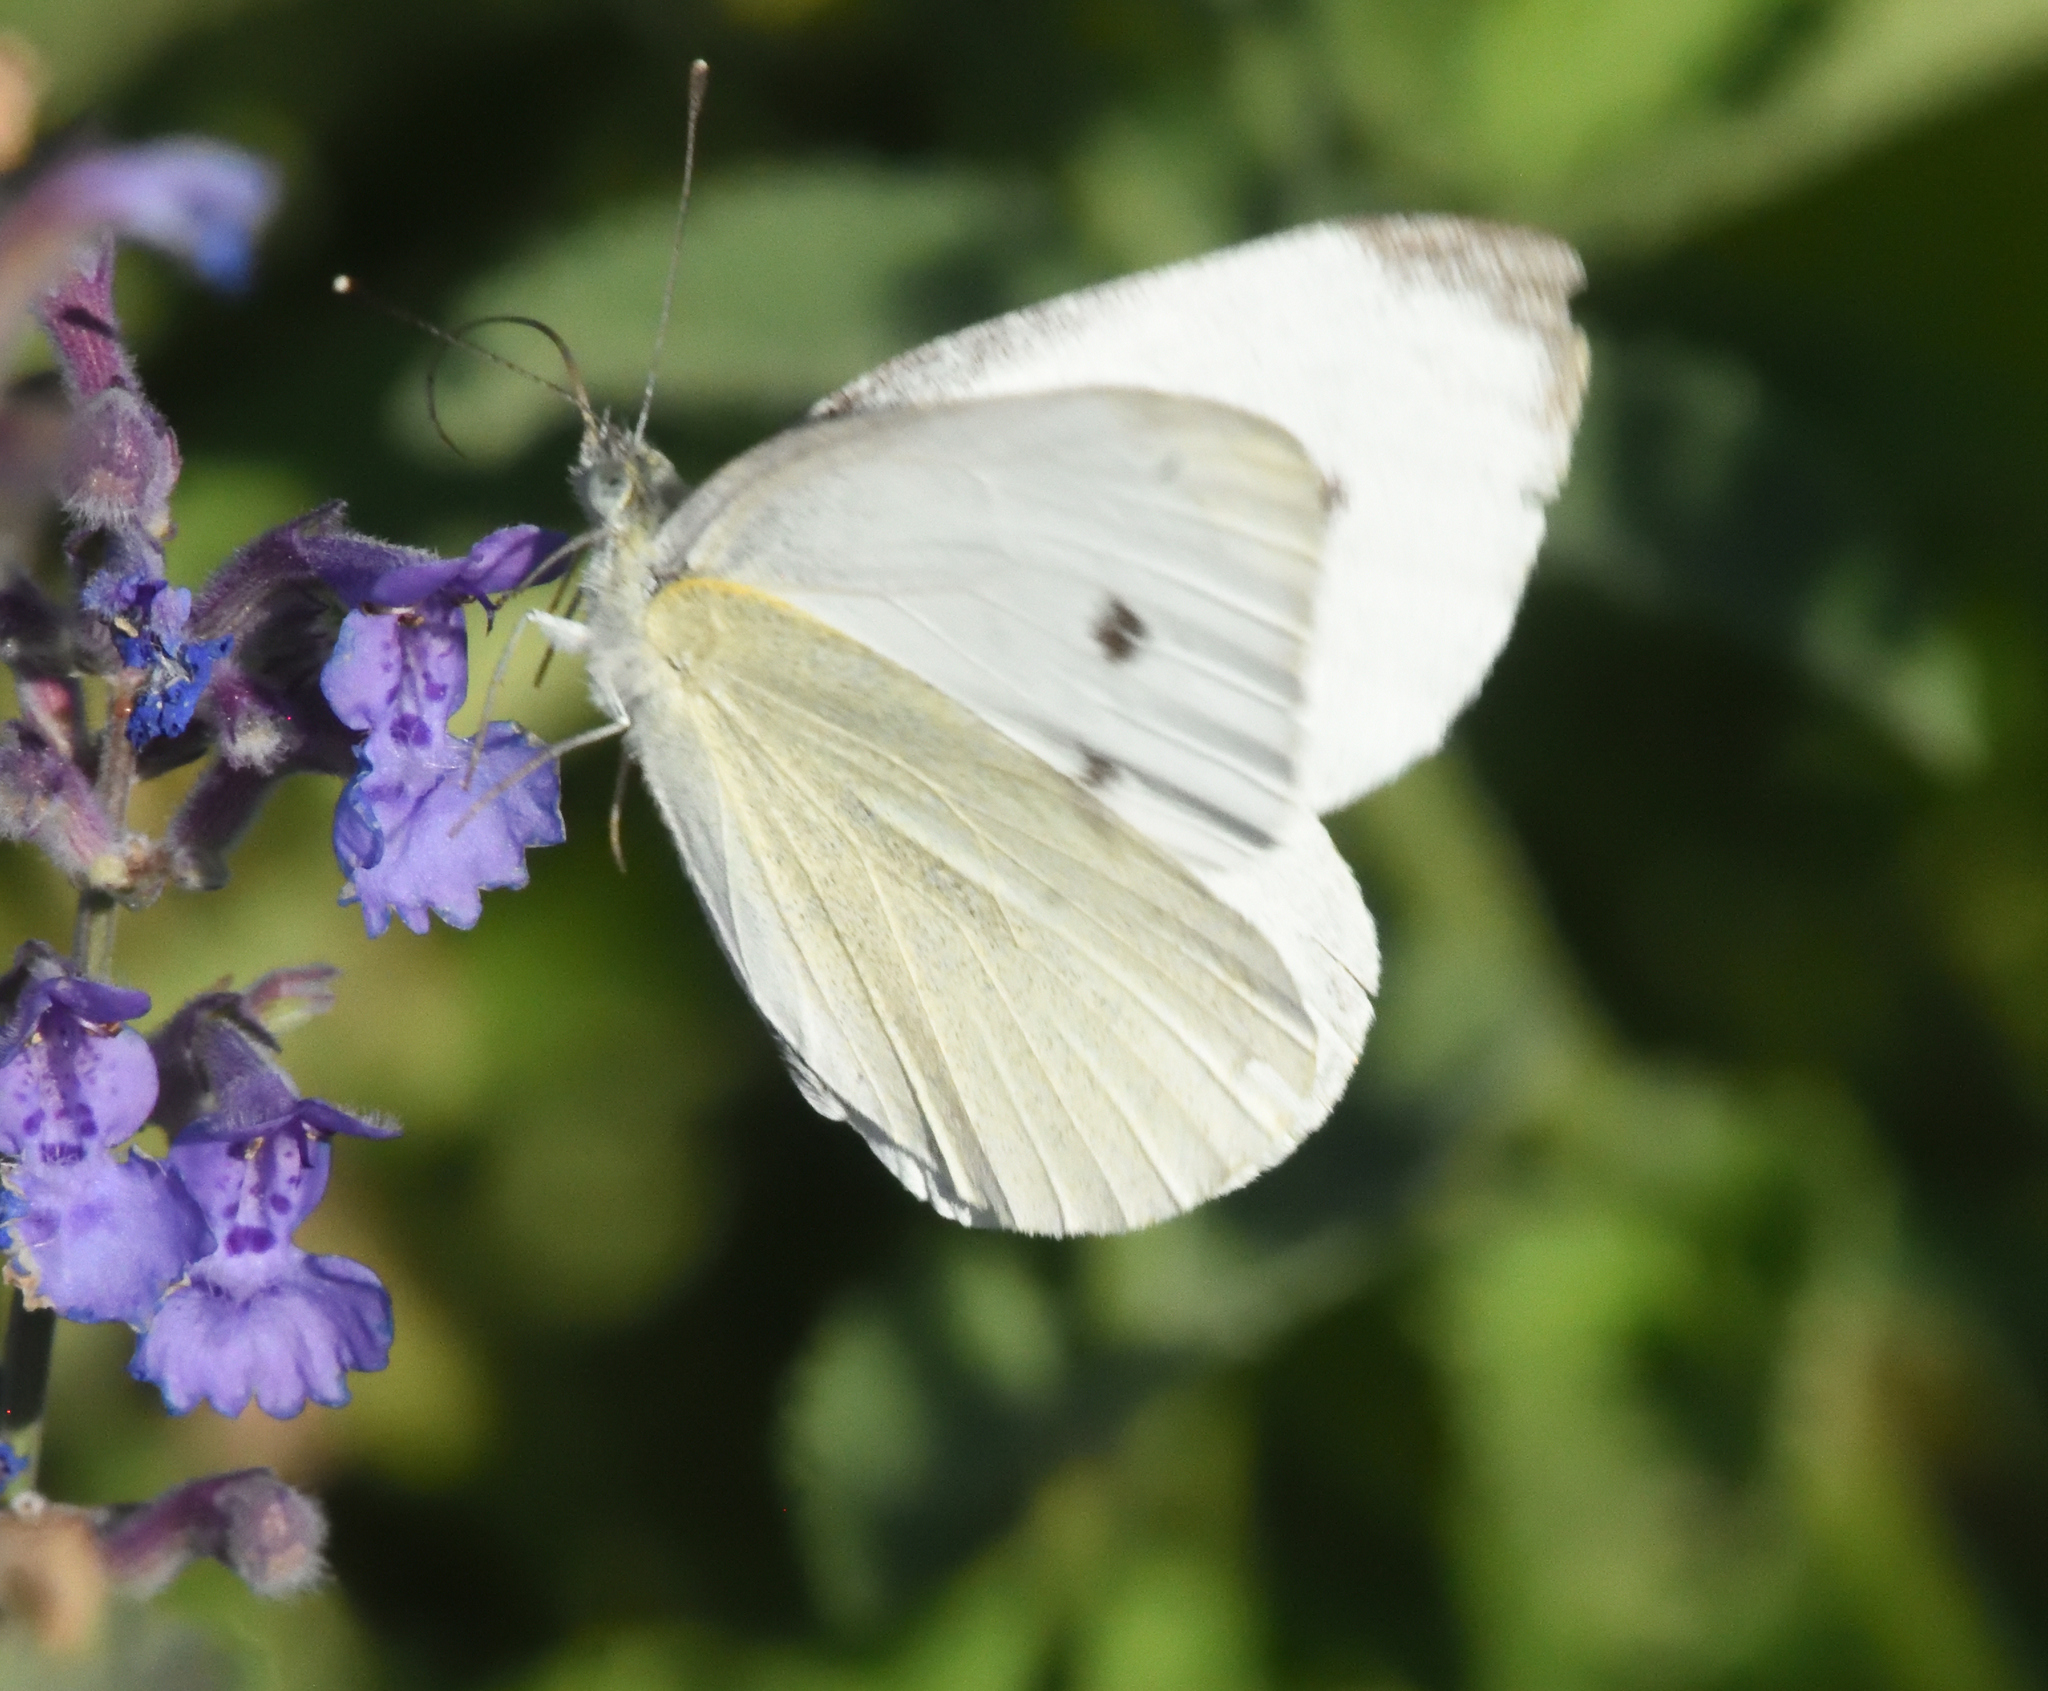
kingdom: Animalia
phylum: Arthropoda
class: Insecta
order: Lepidoptera
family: Pieridae
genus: Pieris
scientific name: Pieris rapae
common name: Small white
